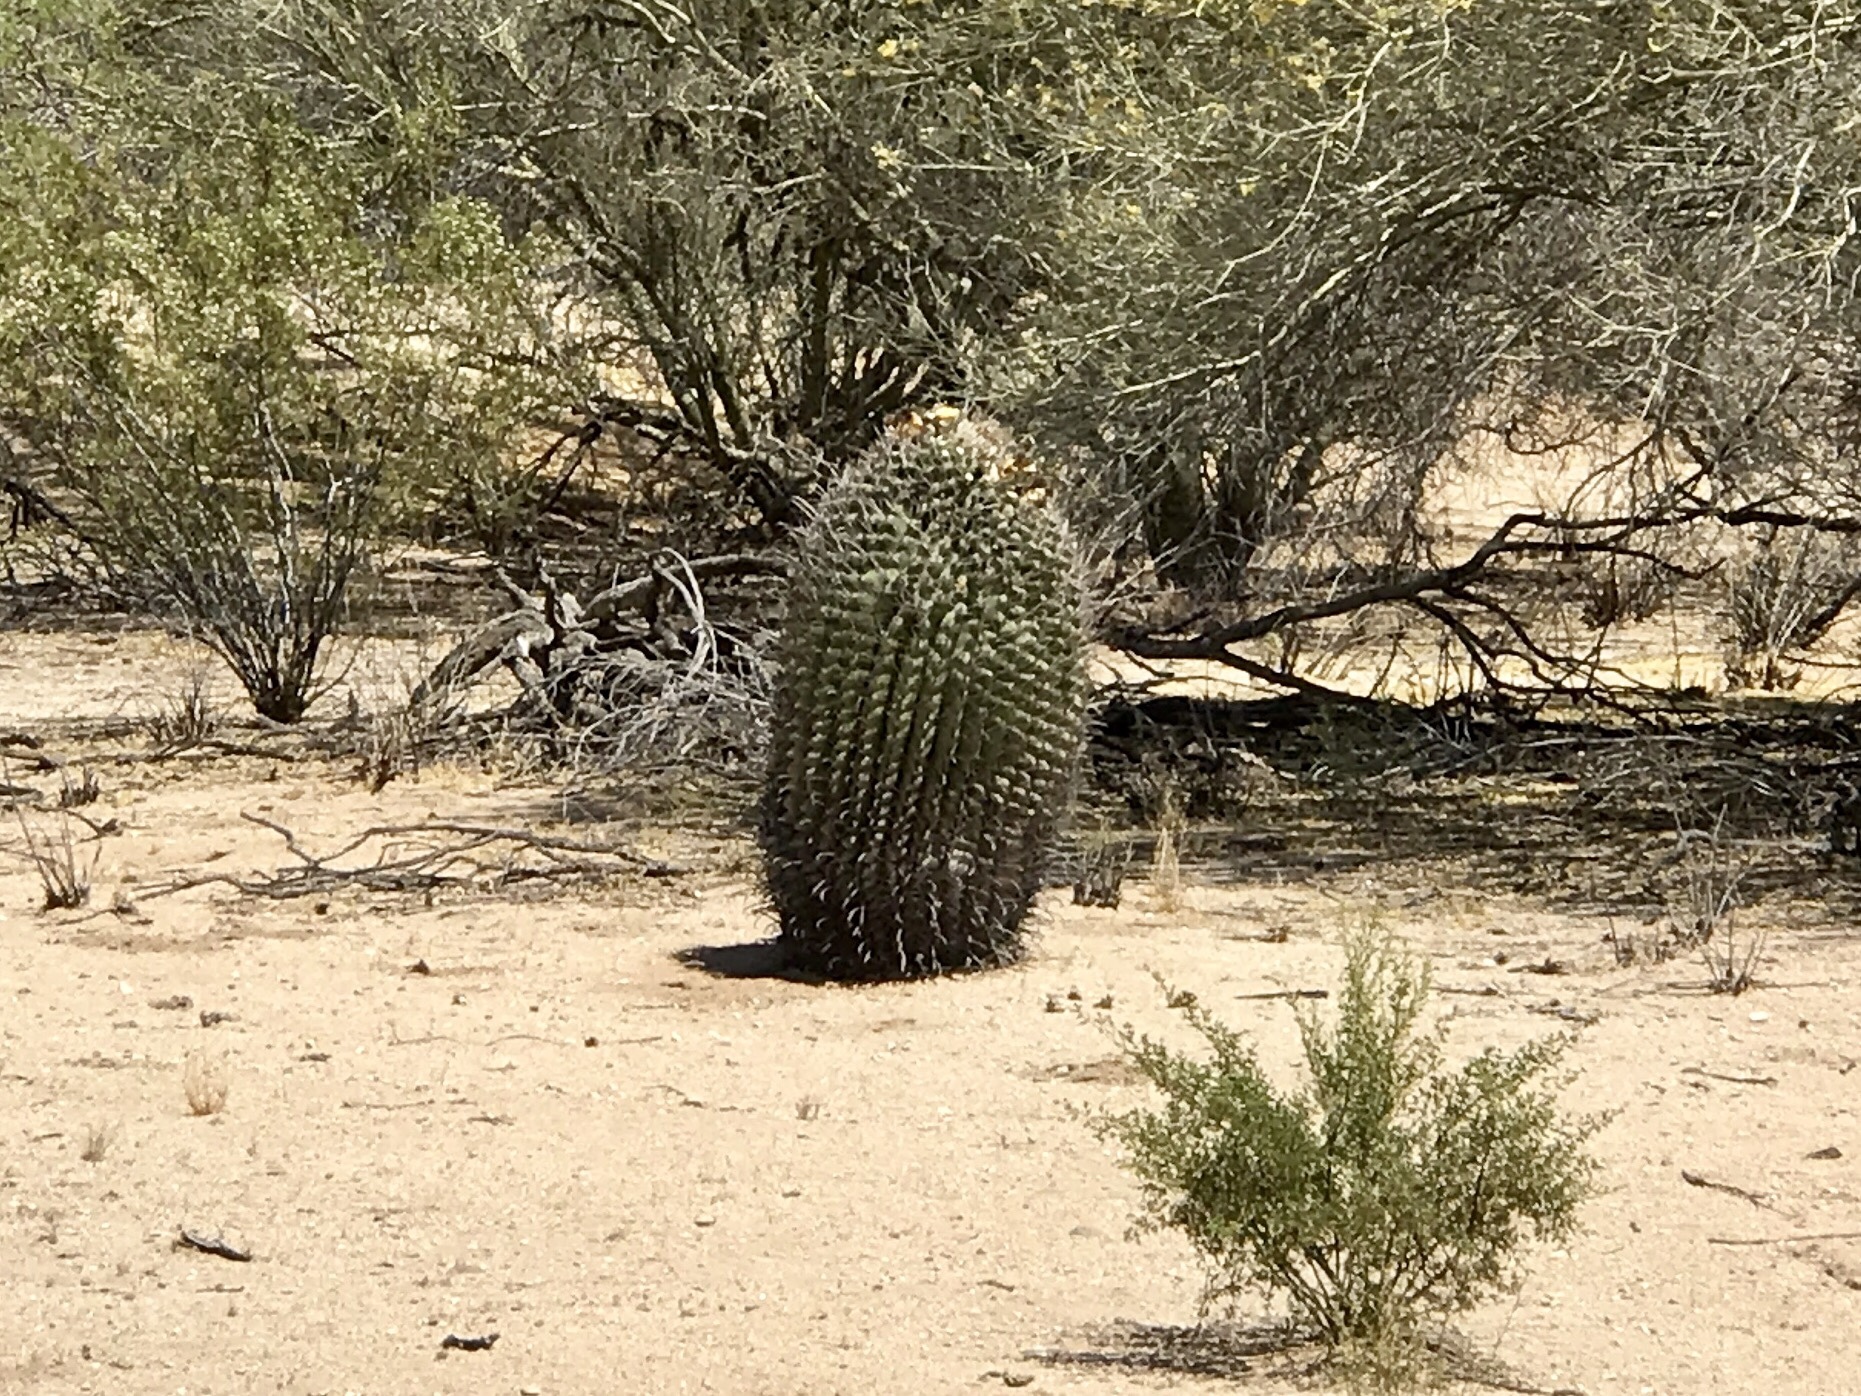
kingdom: Plantae
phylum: Tracheophyta
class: Magnoliopsida
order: Caryophyllales
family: Cactaceae
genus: Ferocactus
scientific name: Ferocactus wislizeni
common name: Candy barrel cactus
